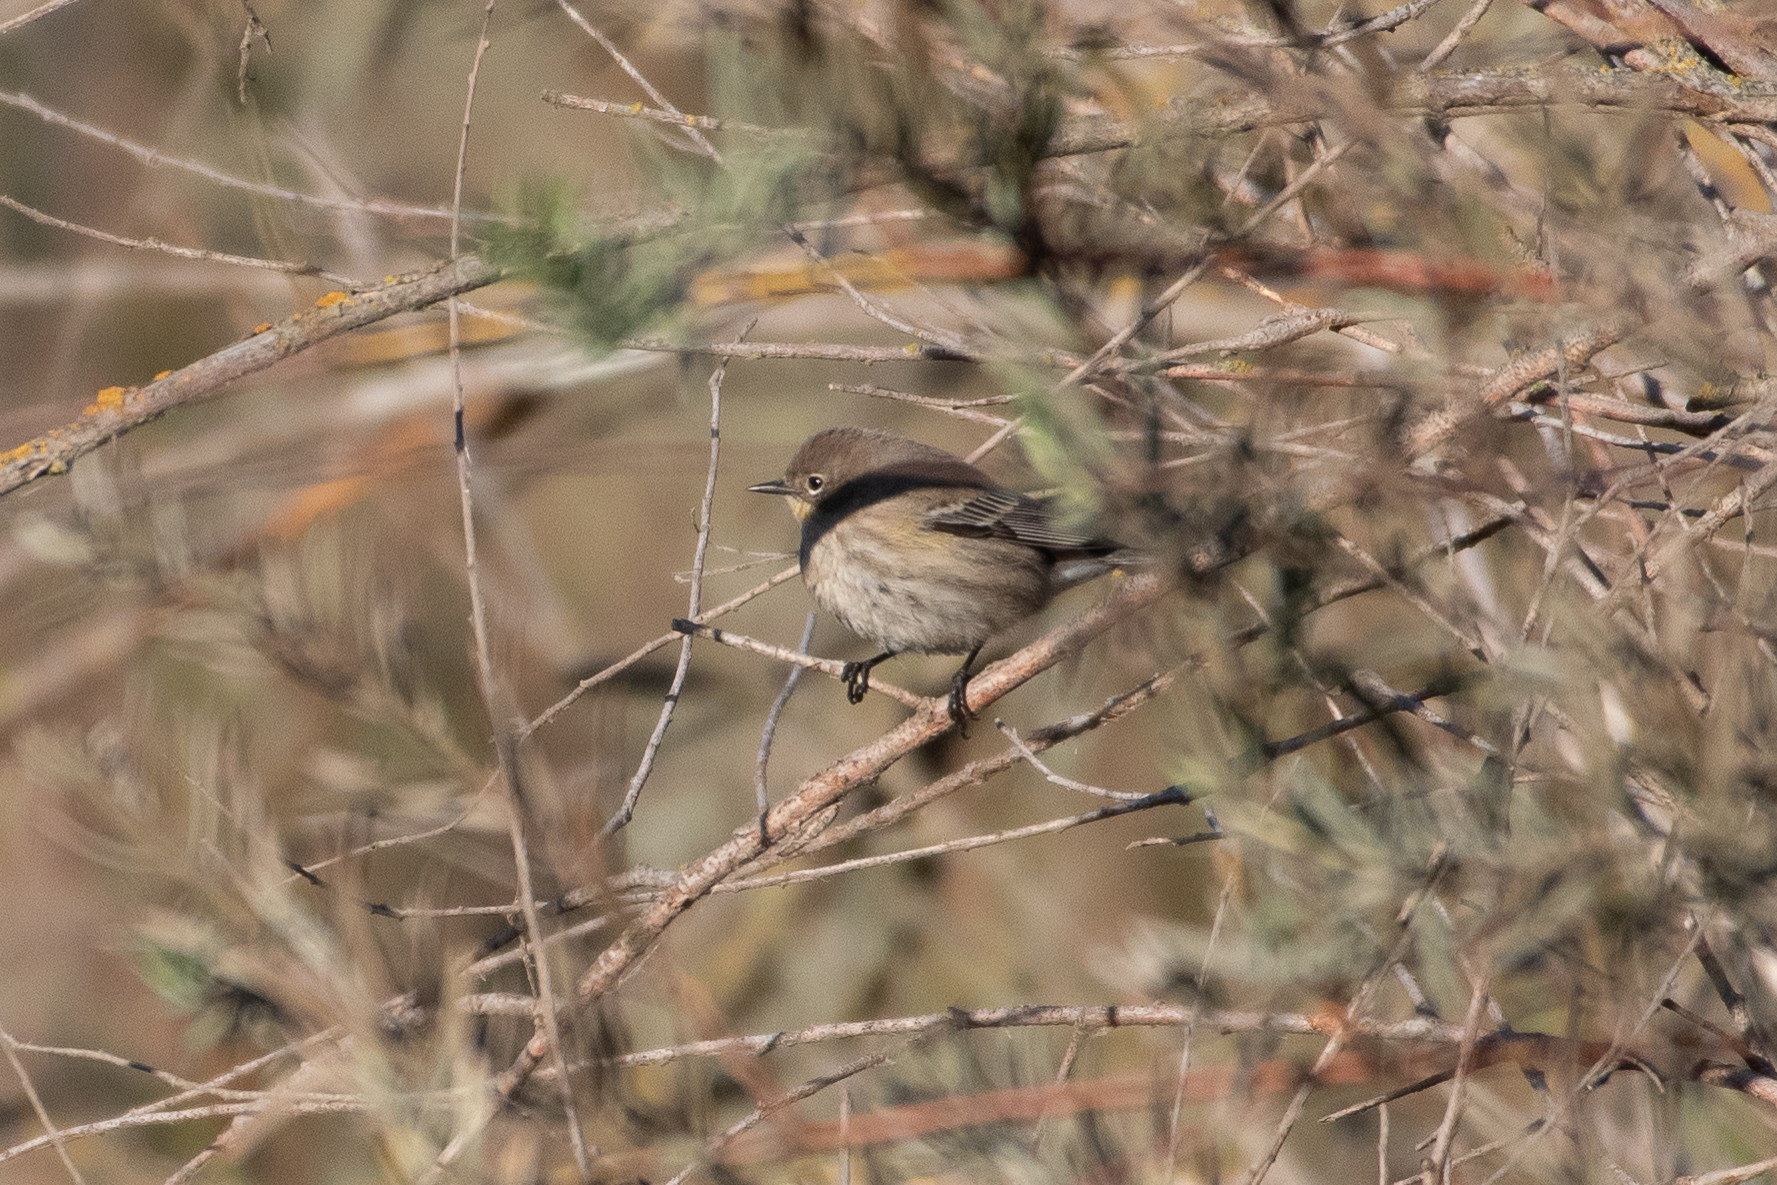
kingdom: Animalia
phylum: Chordata
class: Aves
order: Passeriformes
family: Parulidae
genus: Setophaga
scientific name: Setophaga coronata
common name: Myrtle warbler
